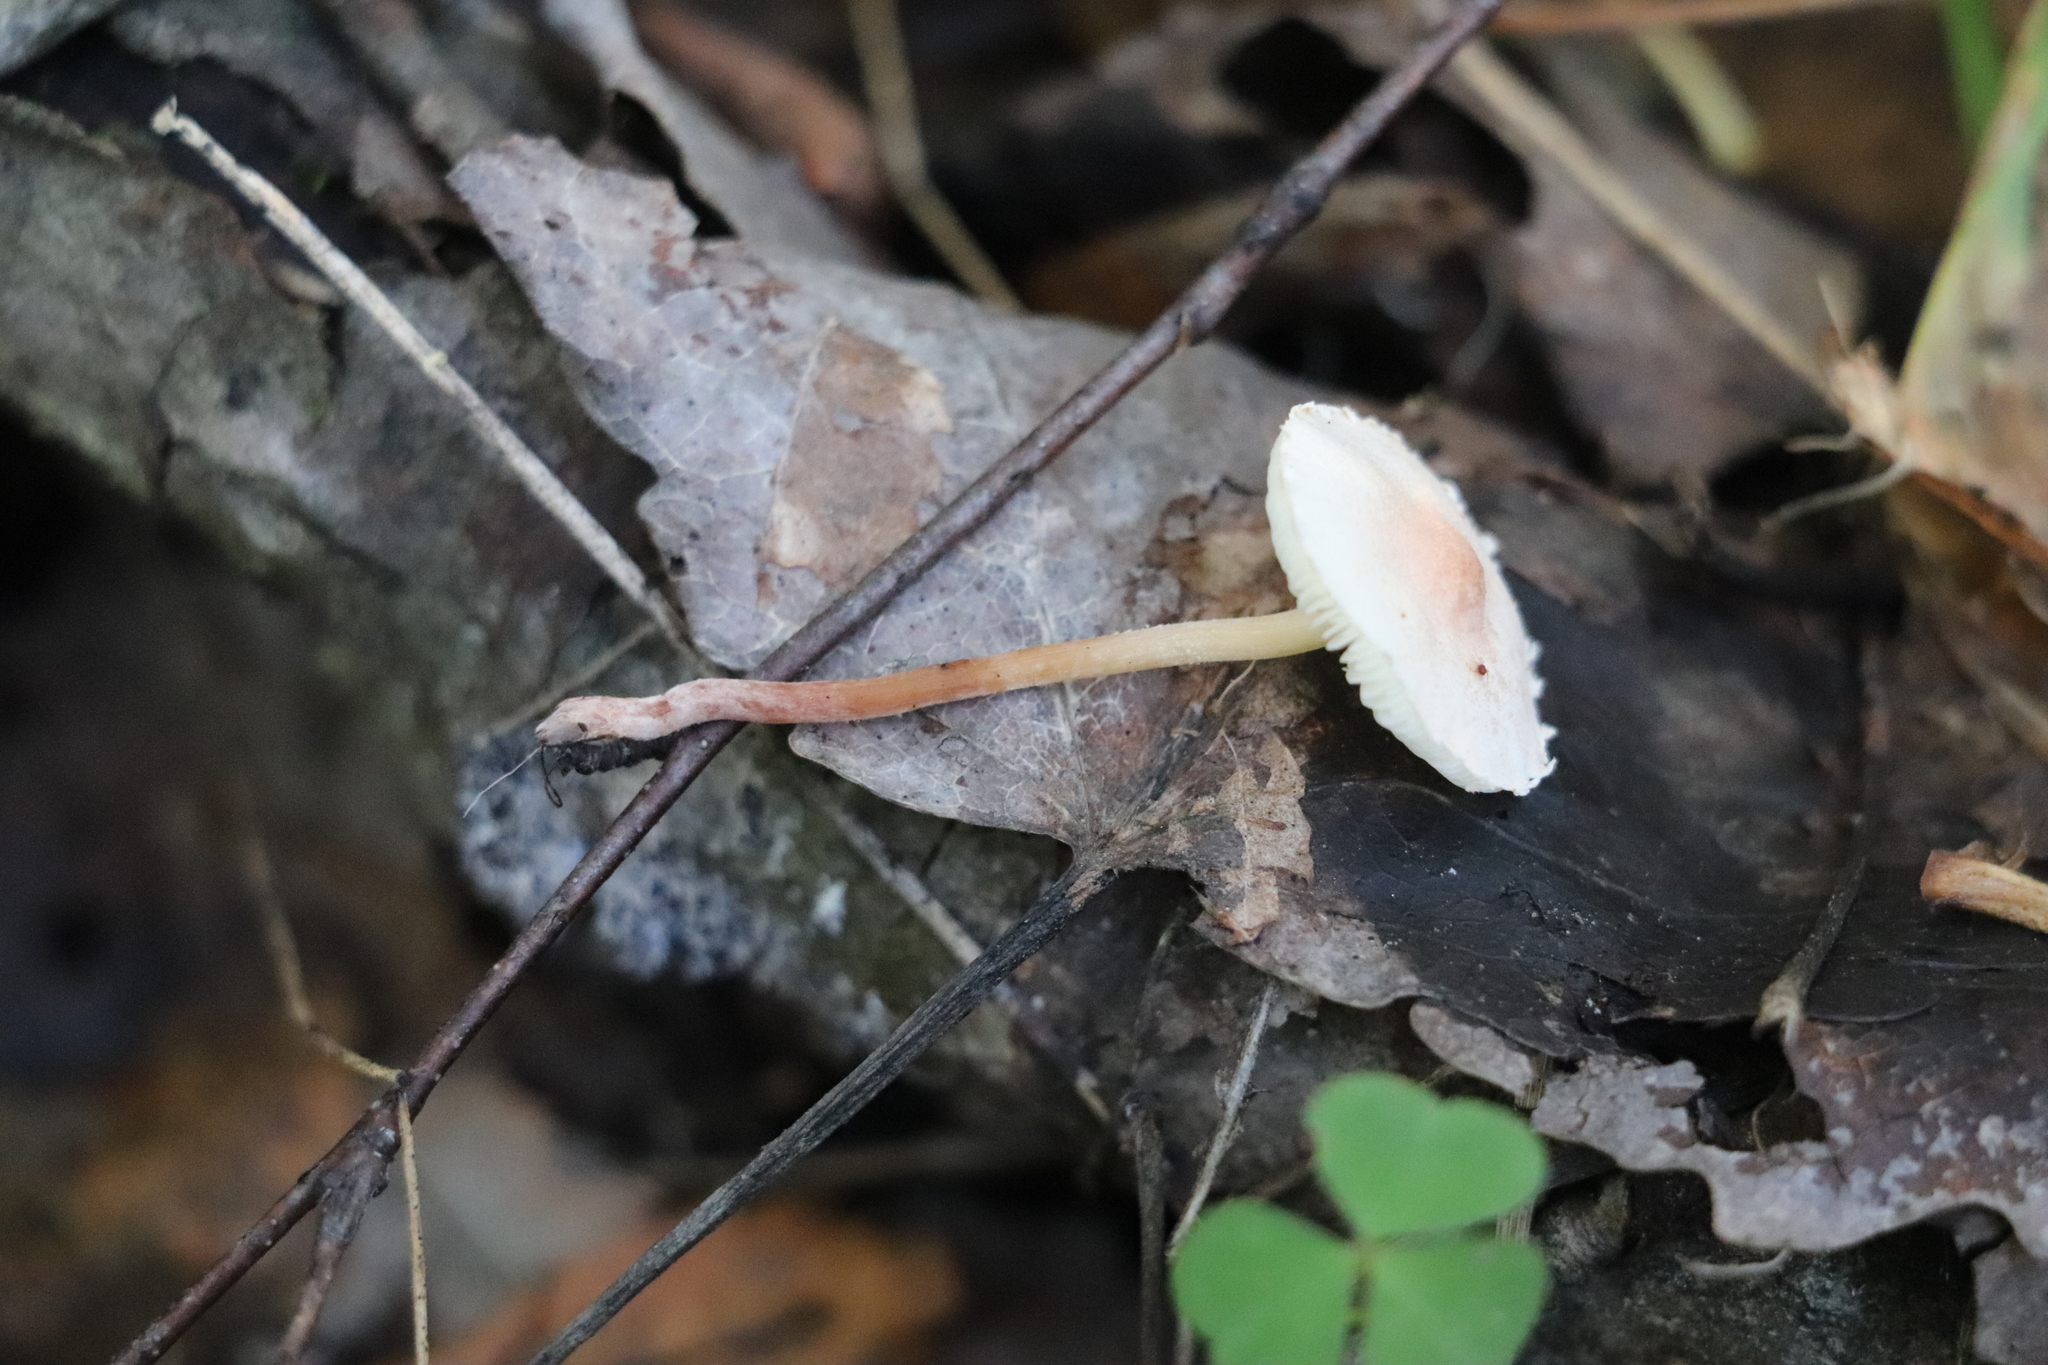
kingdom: Fungi
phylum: Basidiomycota
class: Agaricomycetes
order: Agaricales
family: Agaricaceae
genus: Cystolepiota
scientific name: Cystolepiota seminuda
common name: Bearded dapperling
